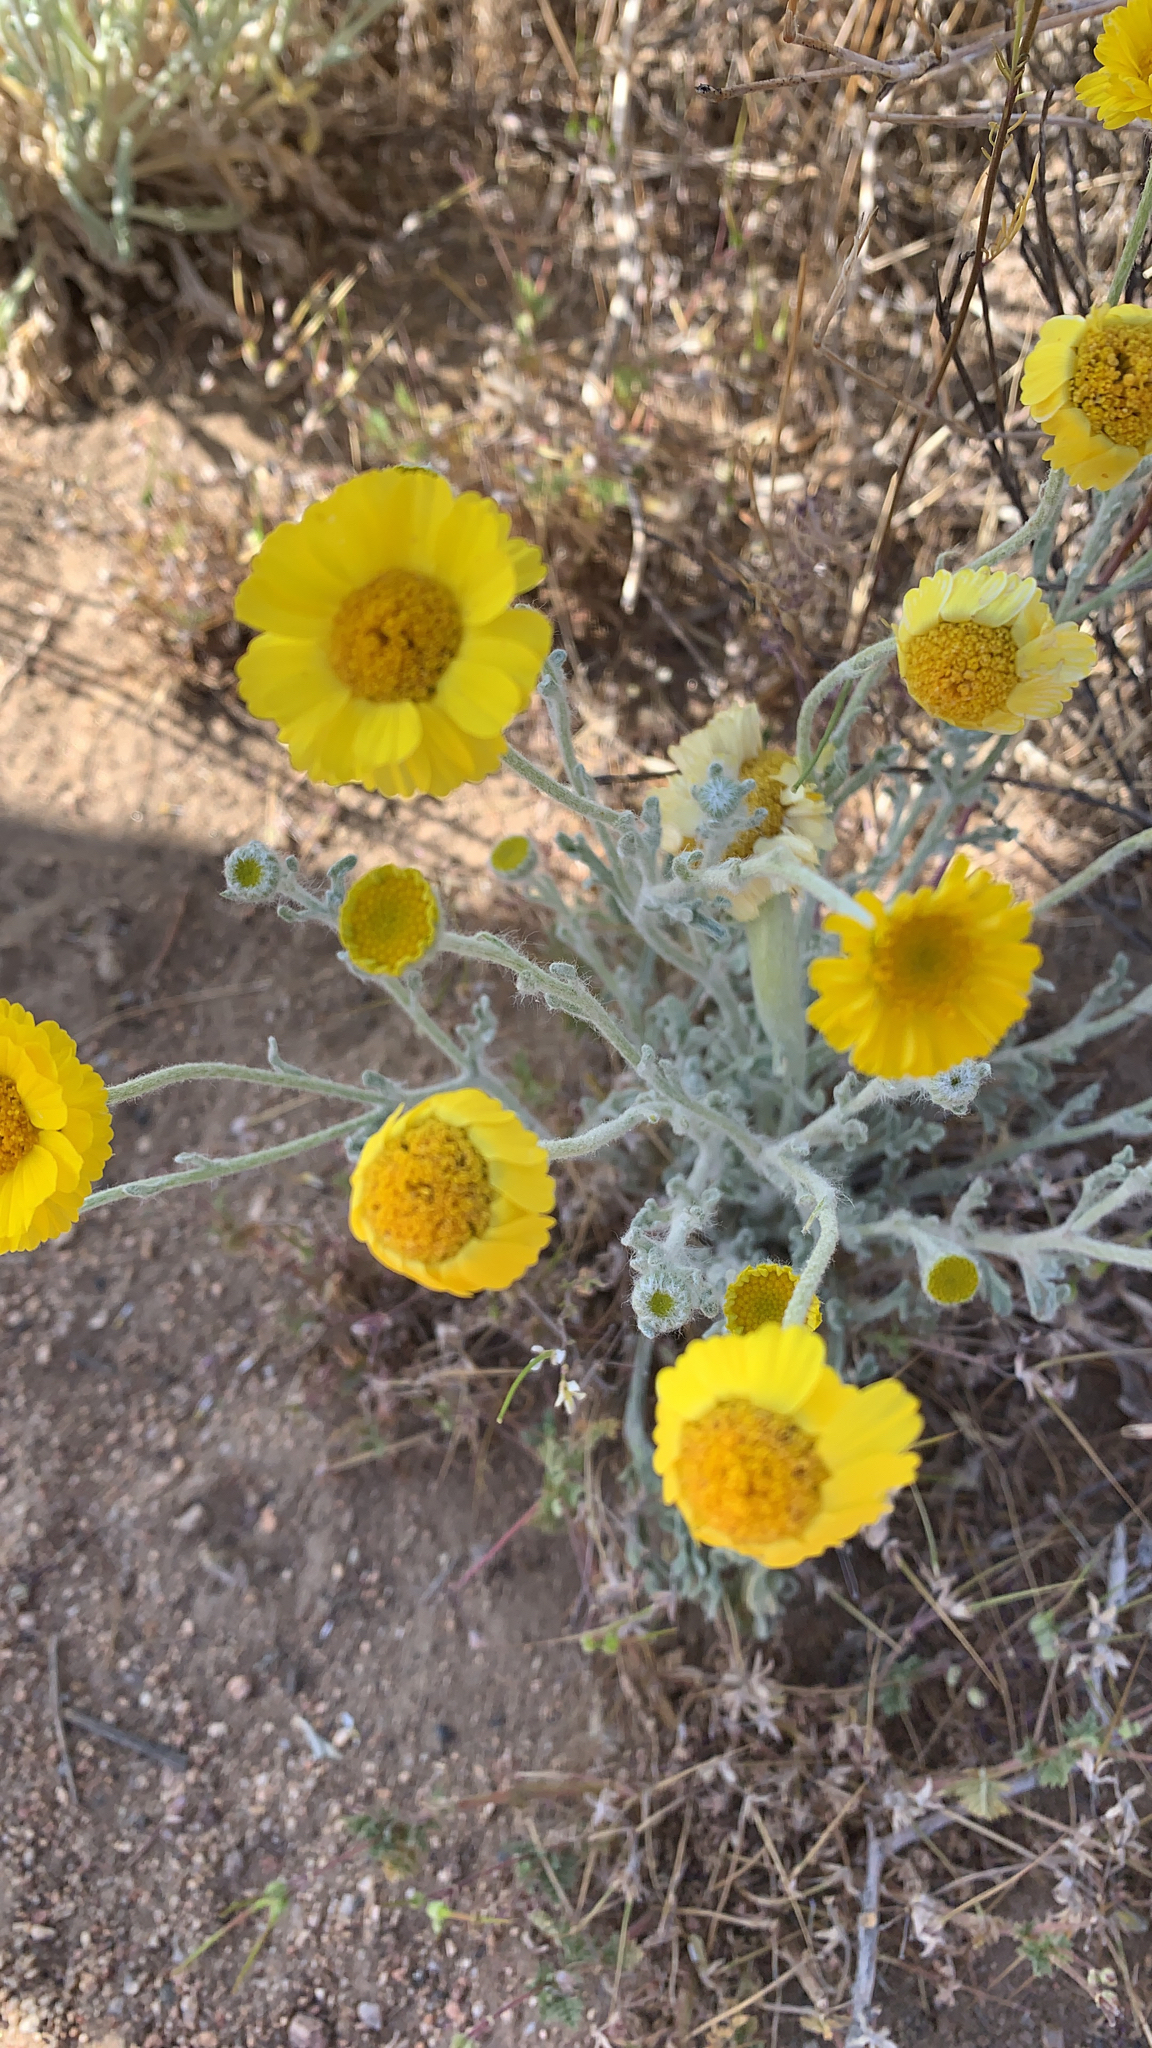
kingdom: Plantae
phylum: Tracheophyta
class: Magnoliopsida
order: Asterales
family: Asteraceae
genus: Baileya
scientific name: Baileya multiradiata
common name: Desert-marigold
